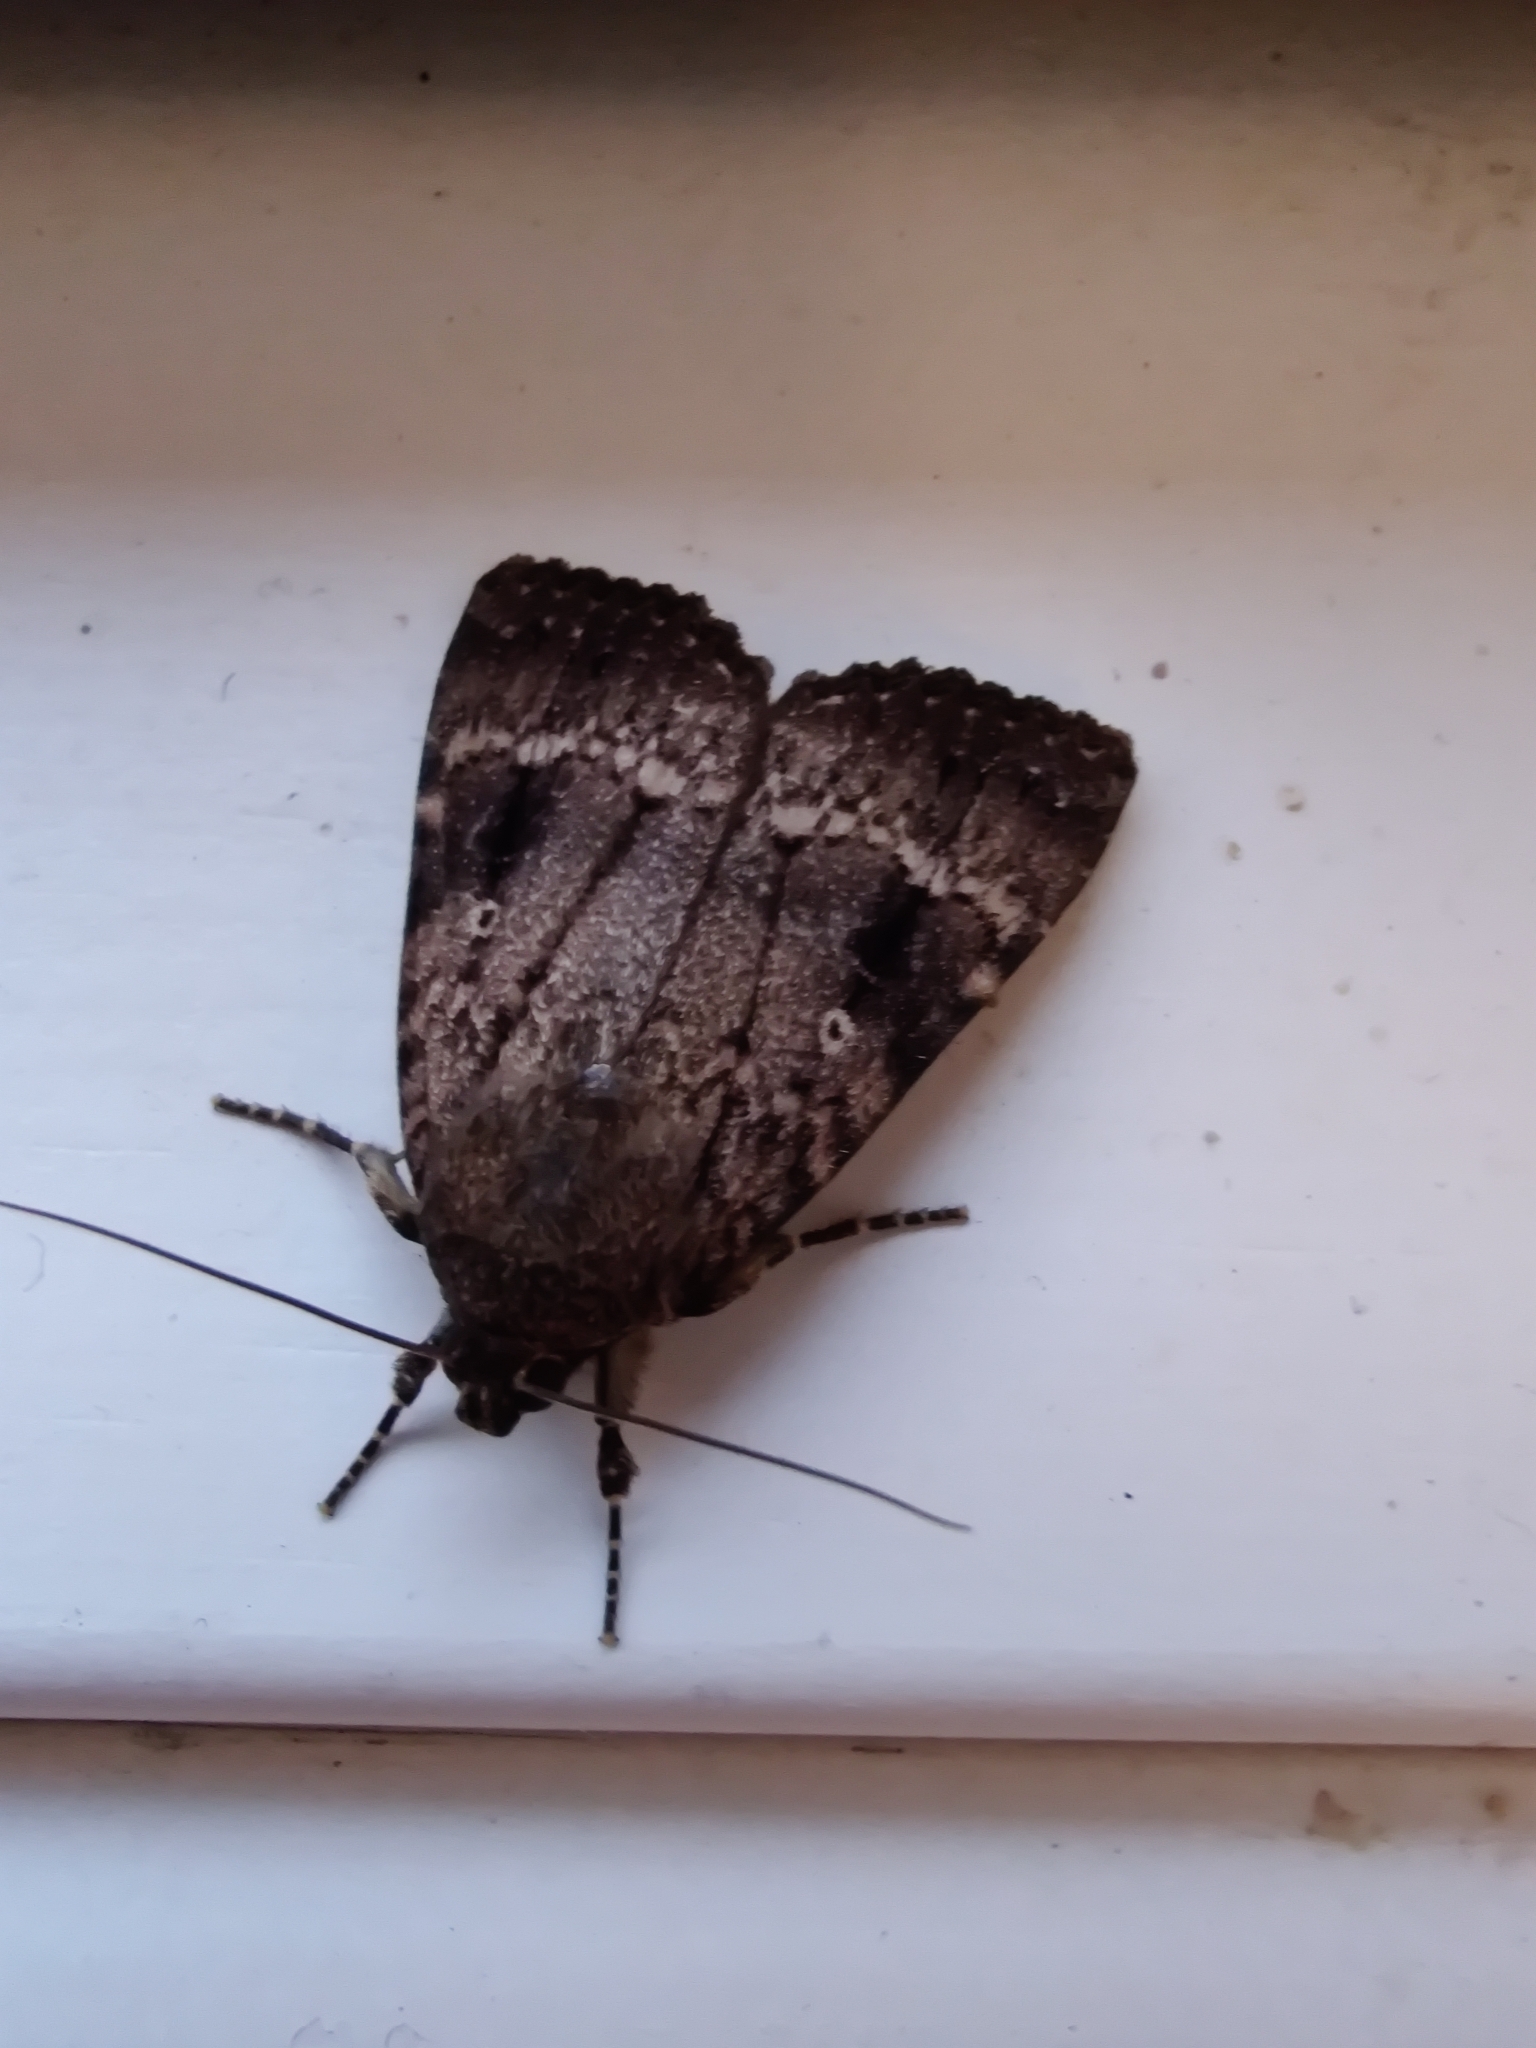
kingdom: Animalia
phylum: Arthropoda
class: Insecta
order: Lepidoptera
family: Noctuidae
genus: Amphipyra
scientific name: Amphipyra pyramidea
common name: Copper underwing
